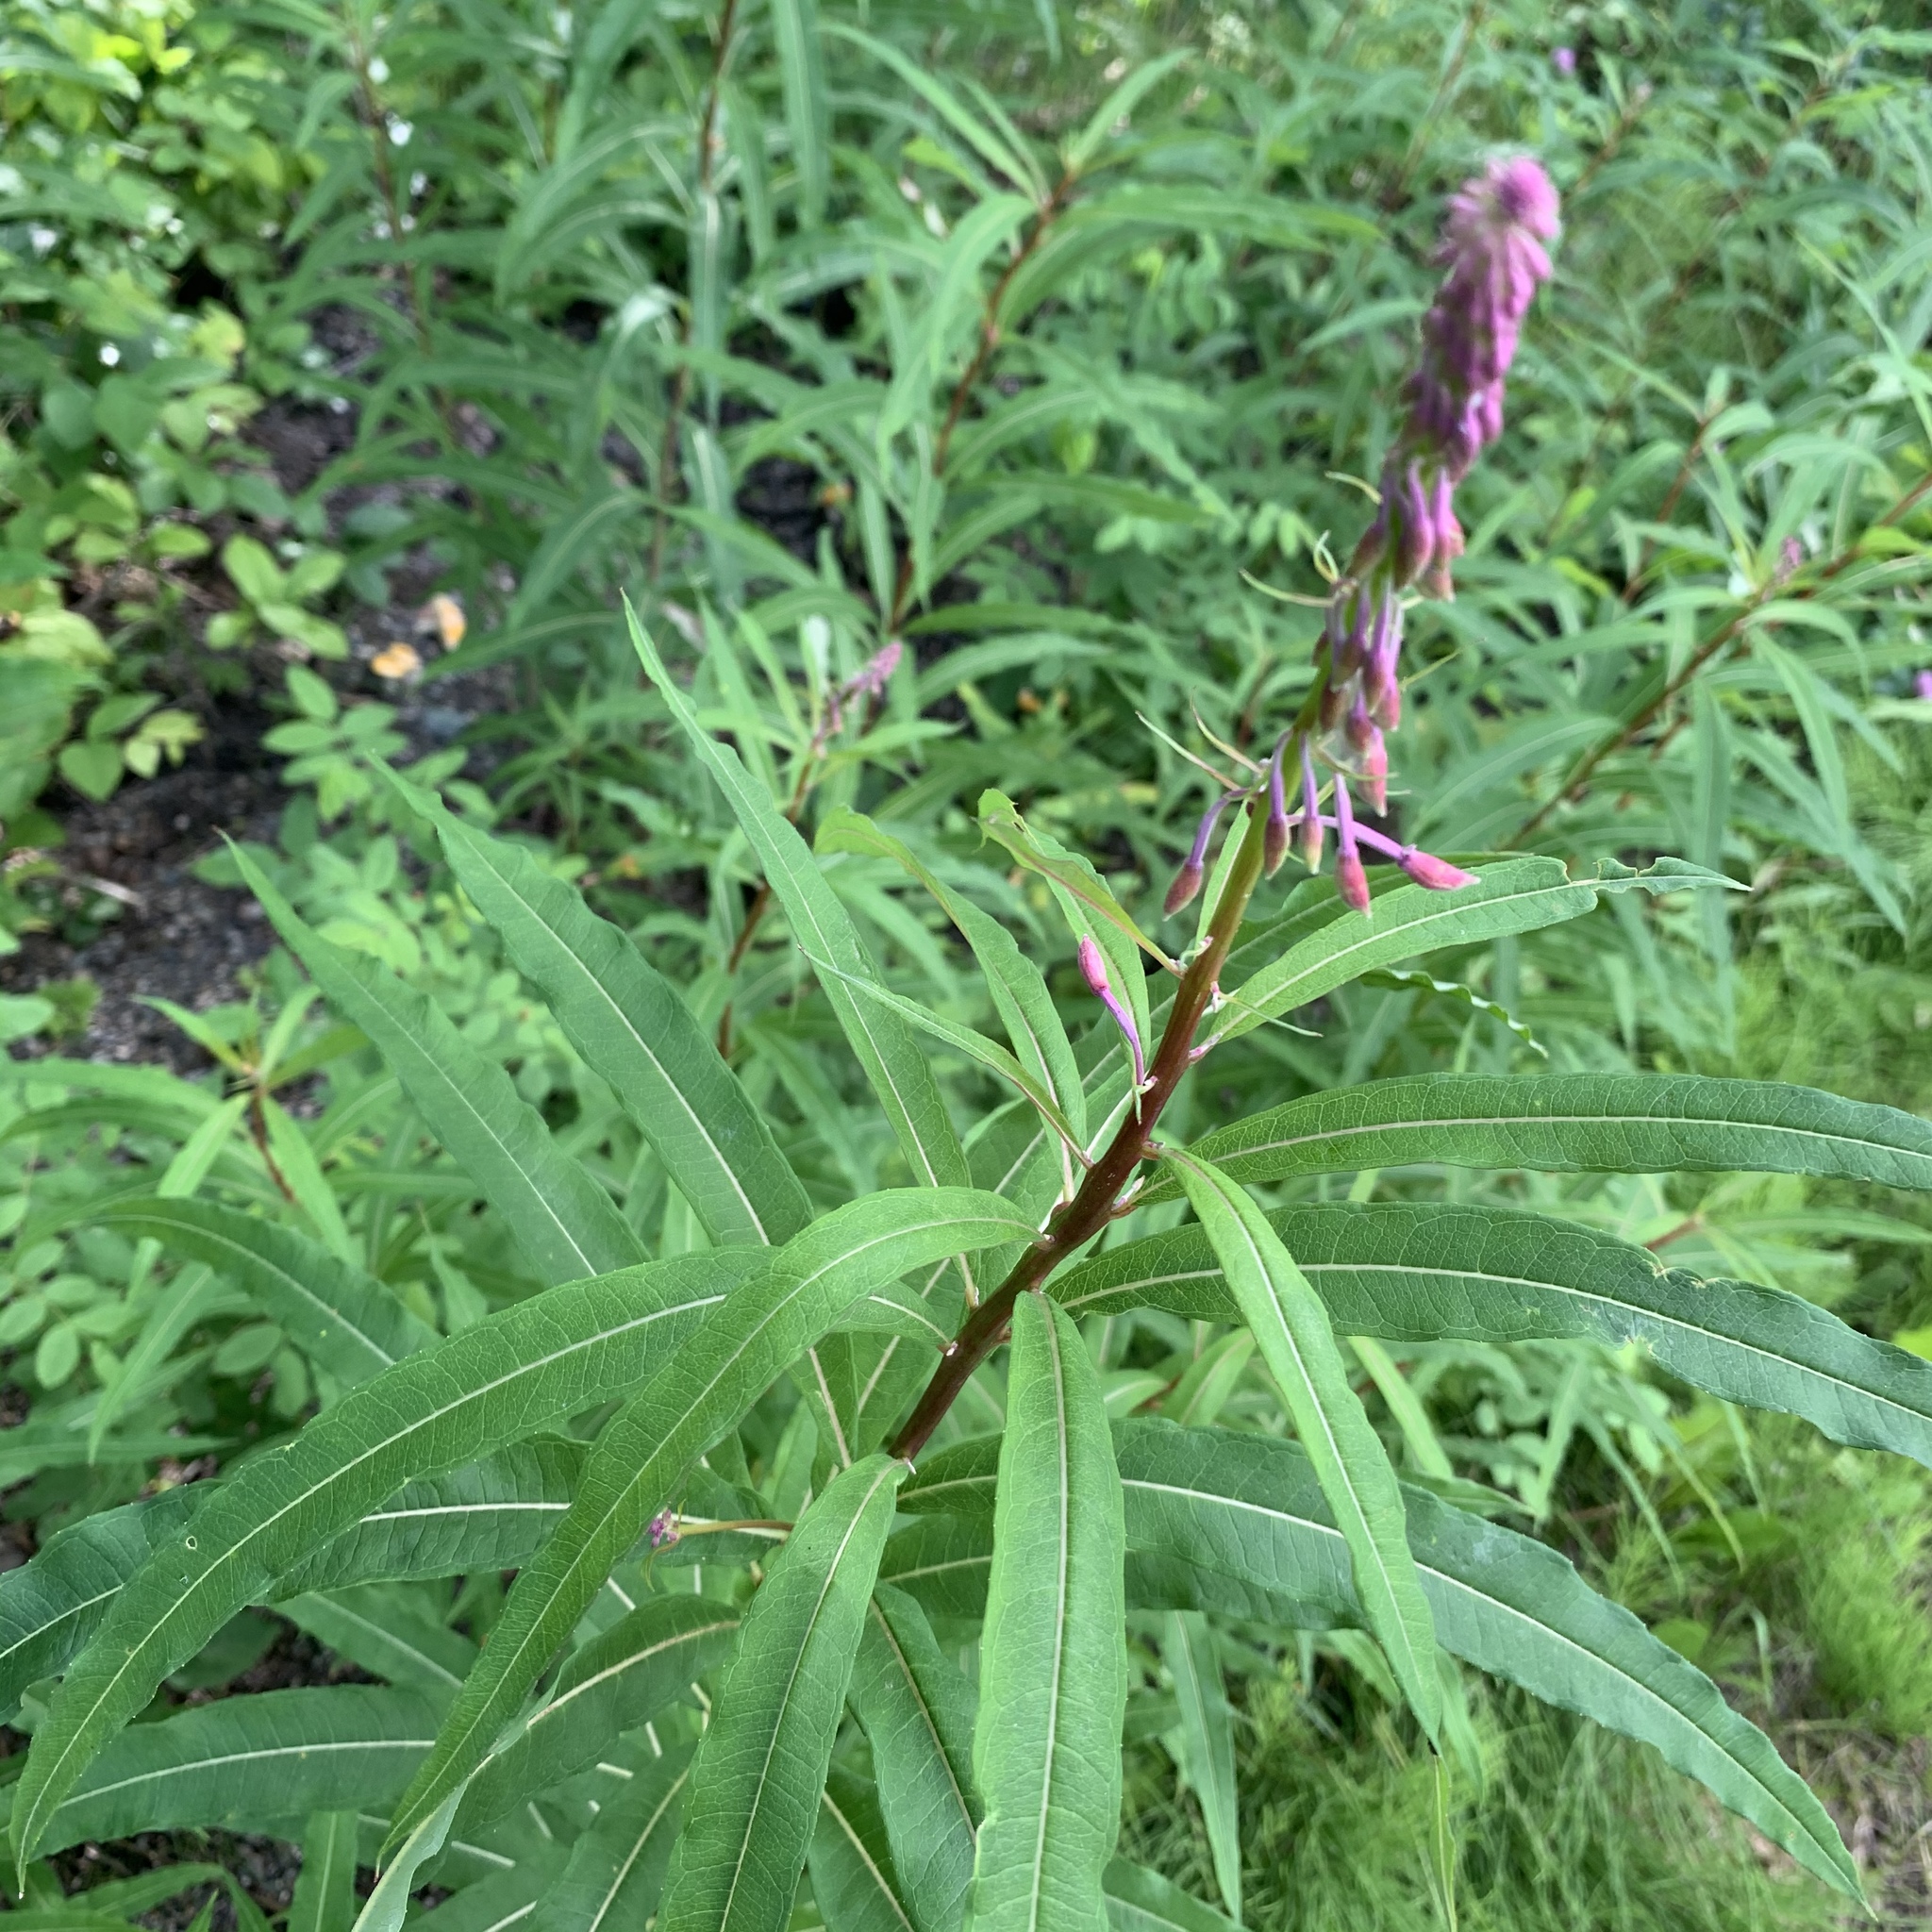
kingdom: Plantae
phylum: Tracheophyta
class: Magnoliopsida
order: Myrtales
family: Onagraceae
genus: Chamaenerion
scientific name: Chamaenerion angustifolium
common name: Fireweed
